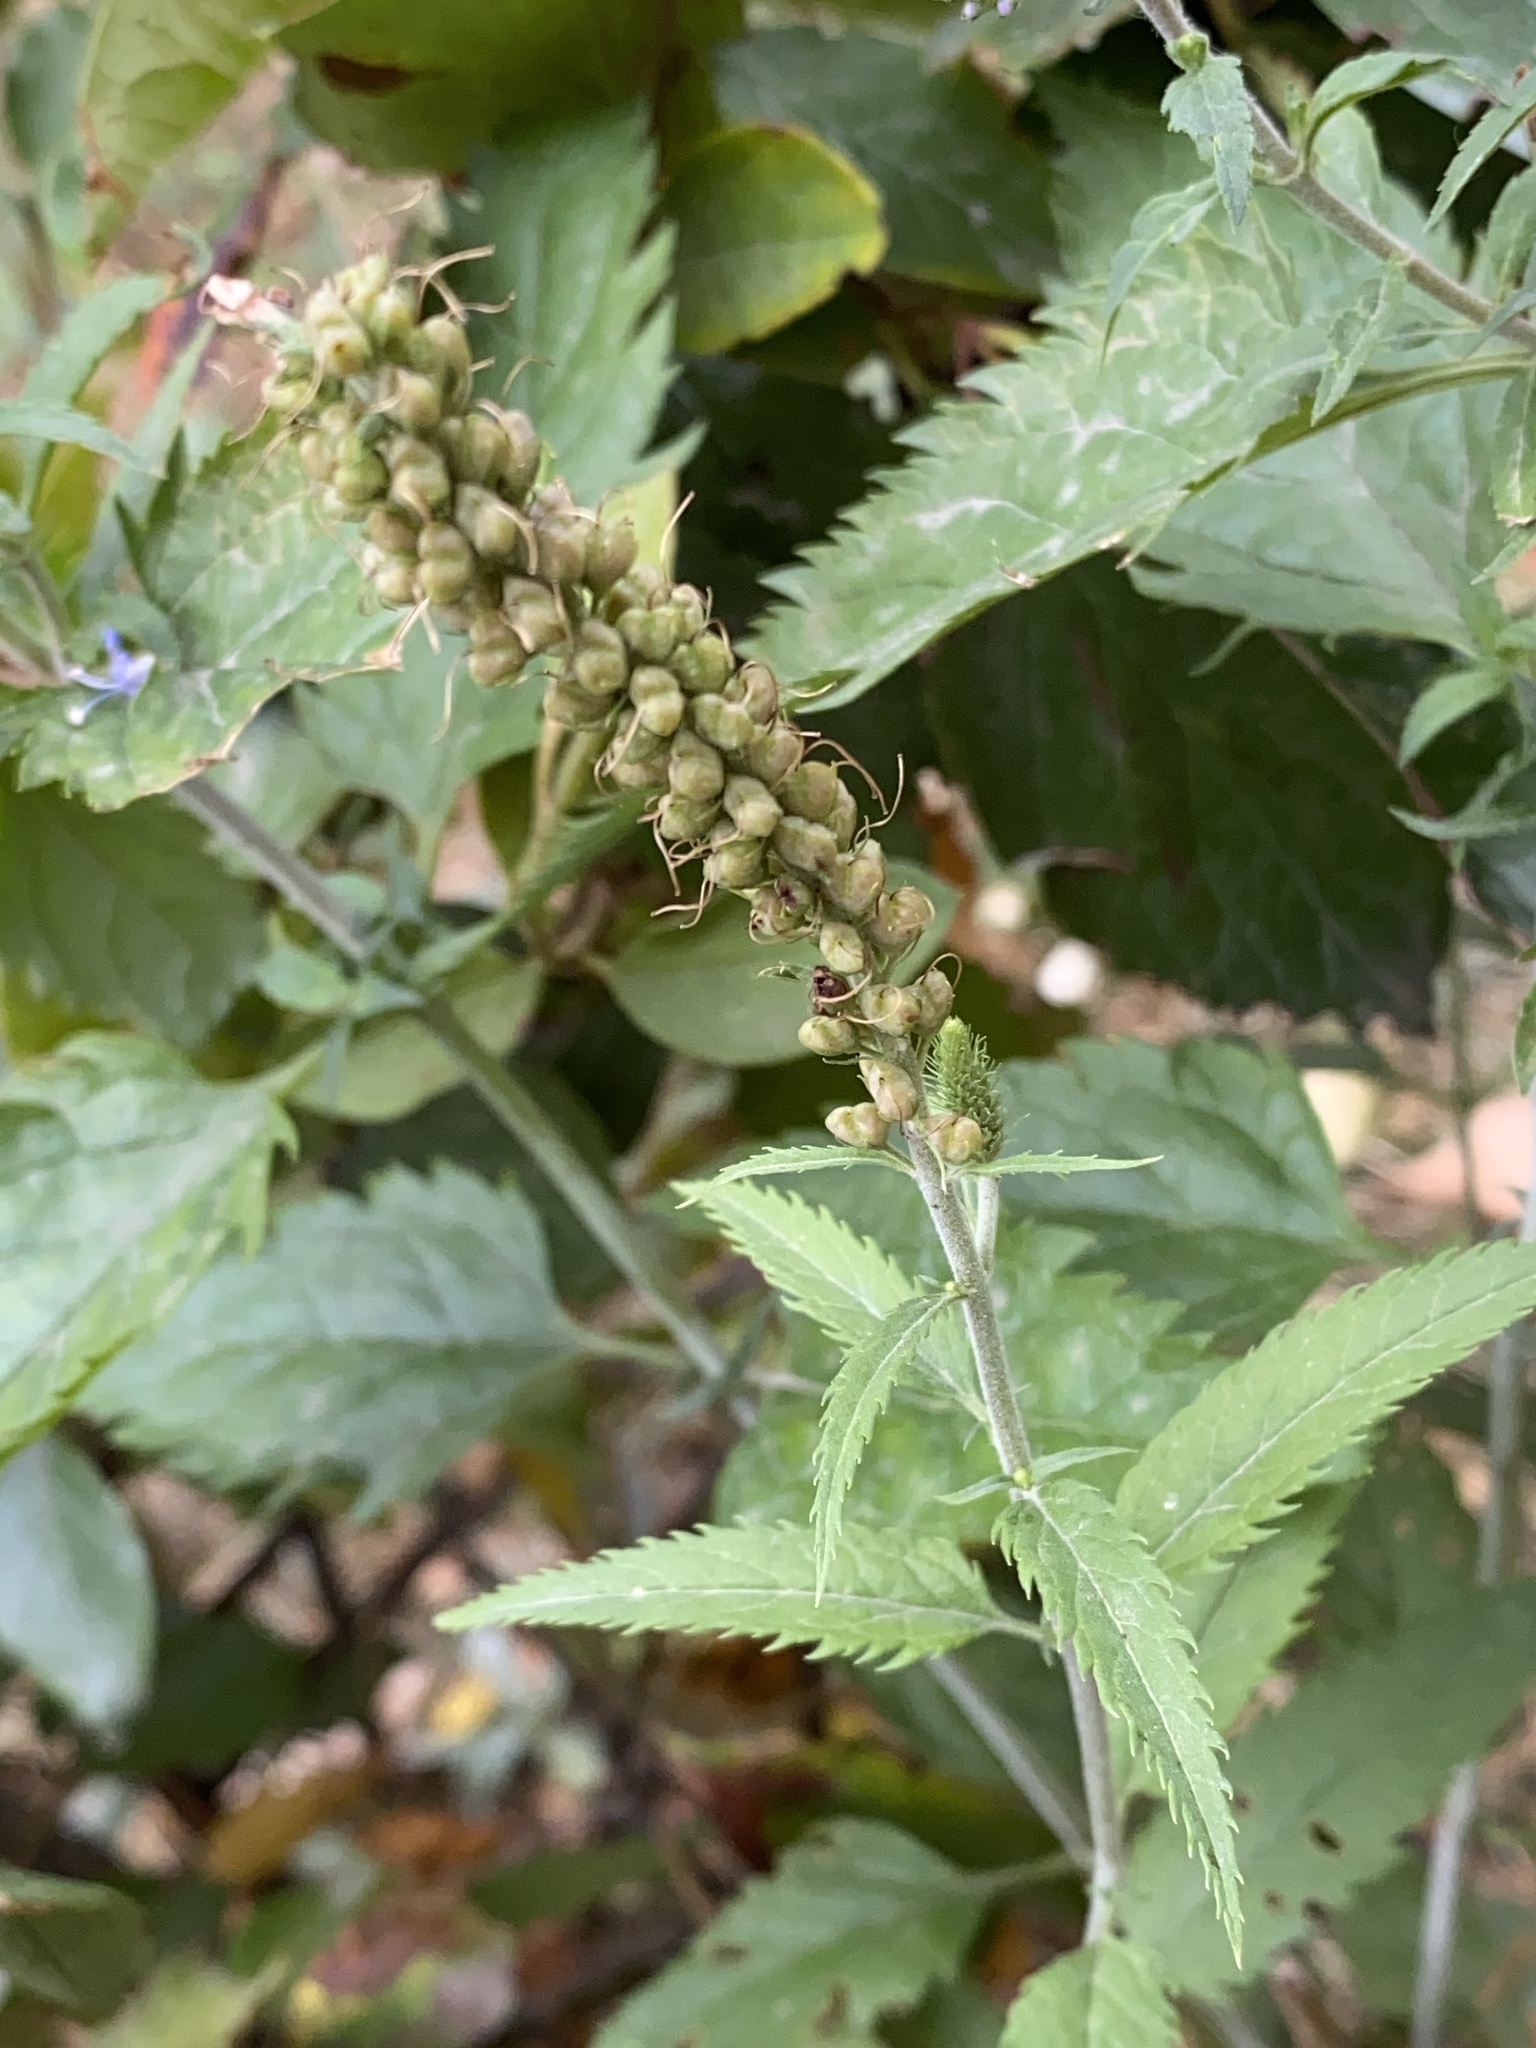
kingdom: Plantae
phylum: Tracheophyta
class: Magnoliopsida
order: Lamiales
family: Plantaginaceae
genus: Veronica
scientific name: Veronica longifolia
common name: Garden speedwell
